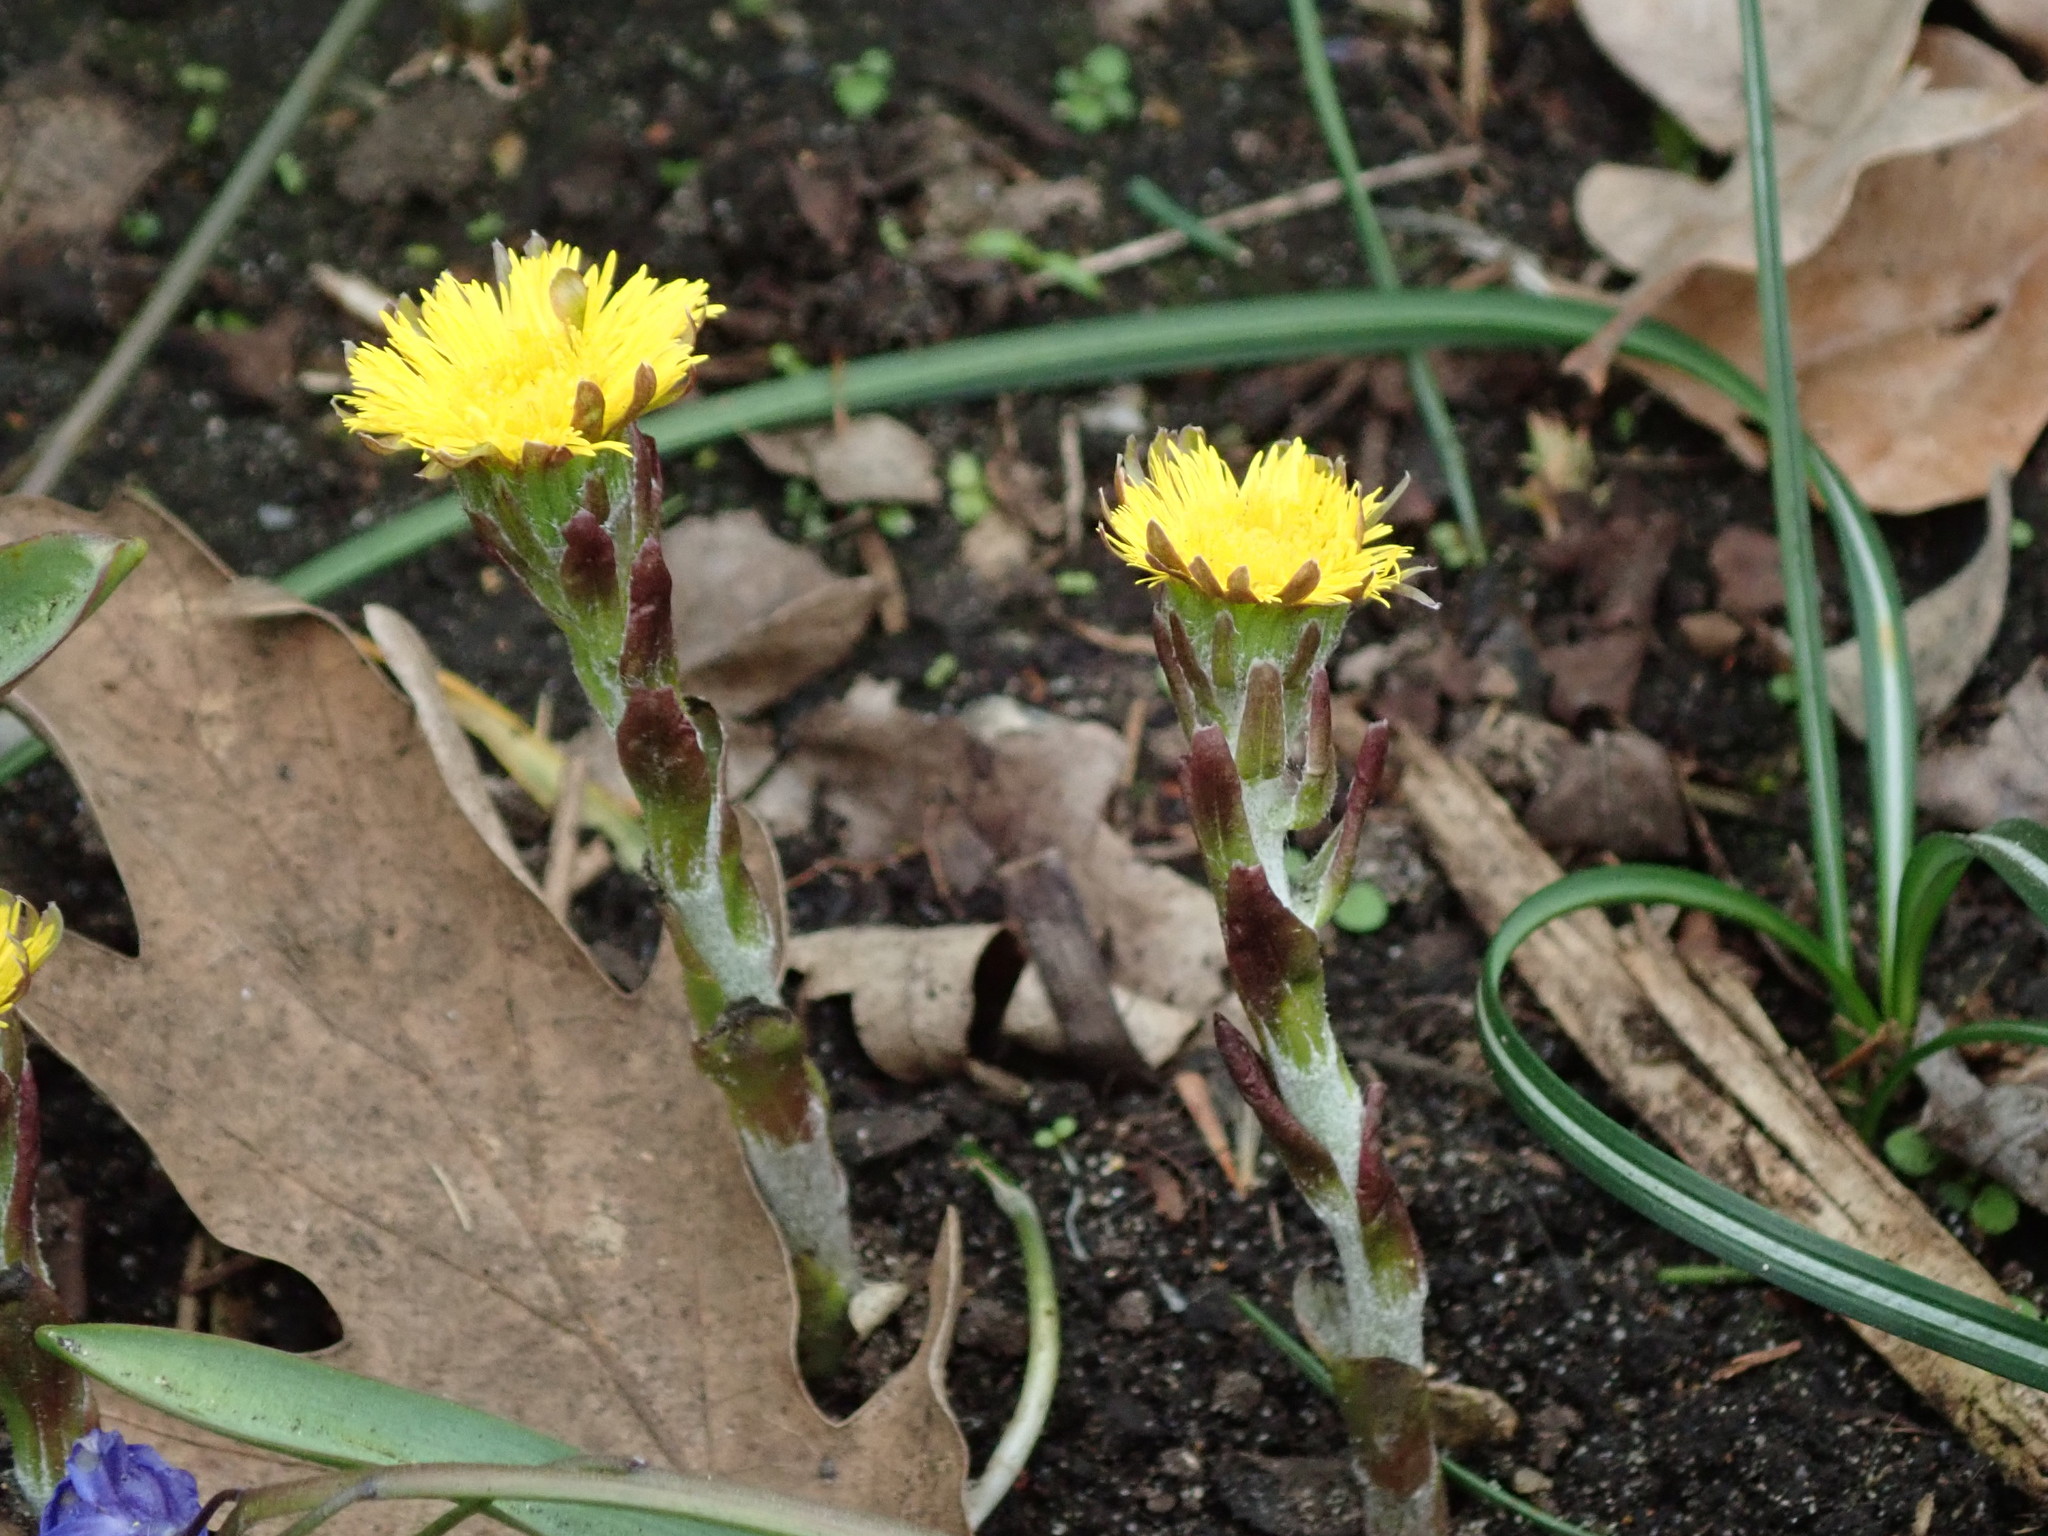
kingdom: Plantae
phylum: Tracheophyta
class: Magnoliopsida
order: Asterales
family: Asteraceae
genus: Tussilago
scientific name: Tussilago farfara
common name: Coltsfoot
